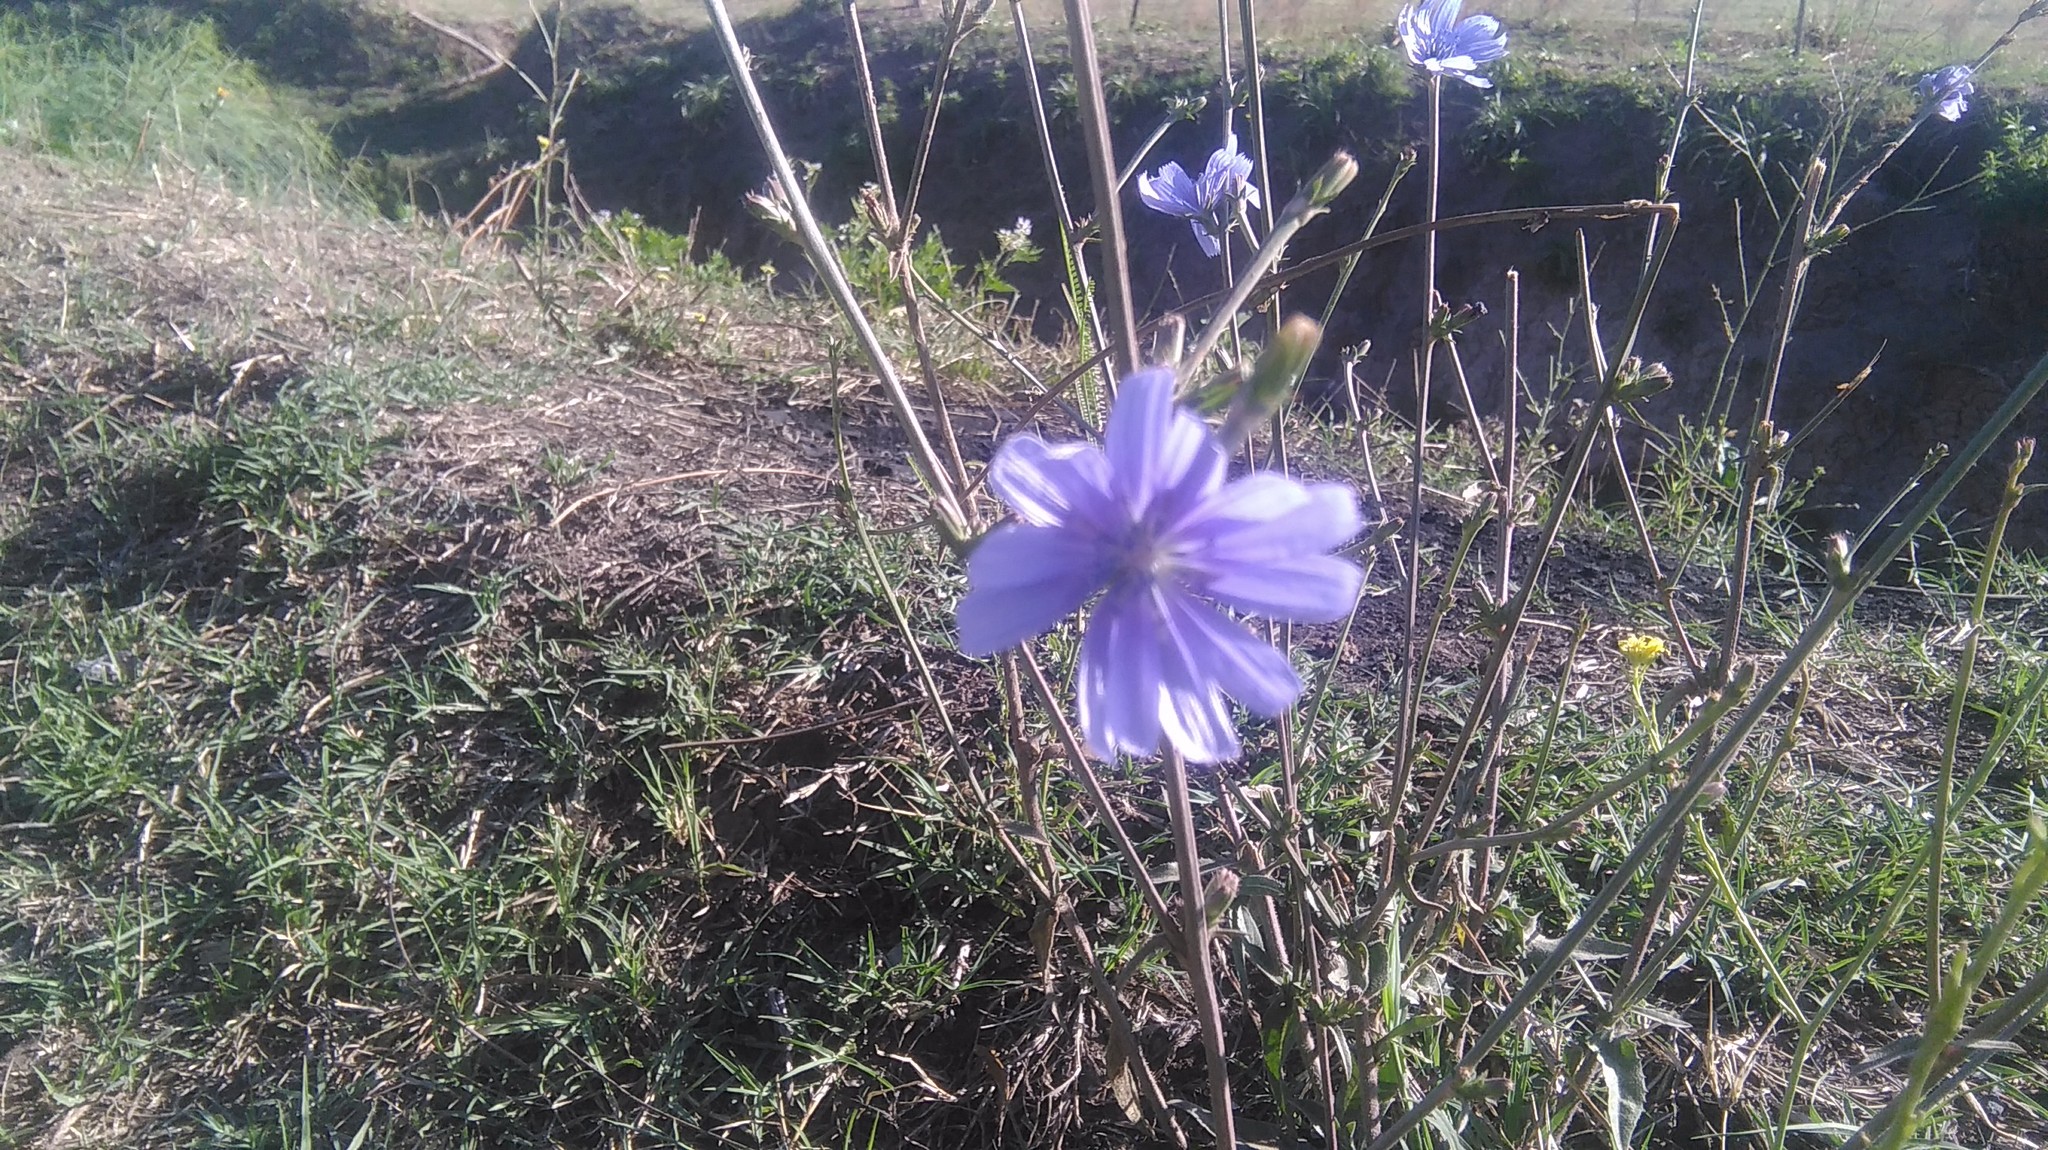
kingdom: Plantae
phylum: Tracheophyta
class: Magnoliopsida
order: Asterales
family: Asteraceae
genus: Cichorium
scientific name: Cichorium intybus
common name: Chicory
